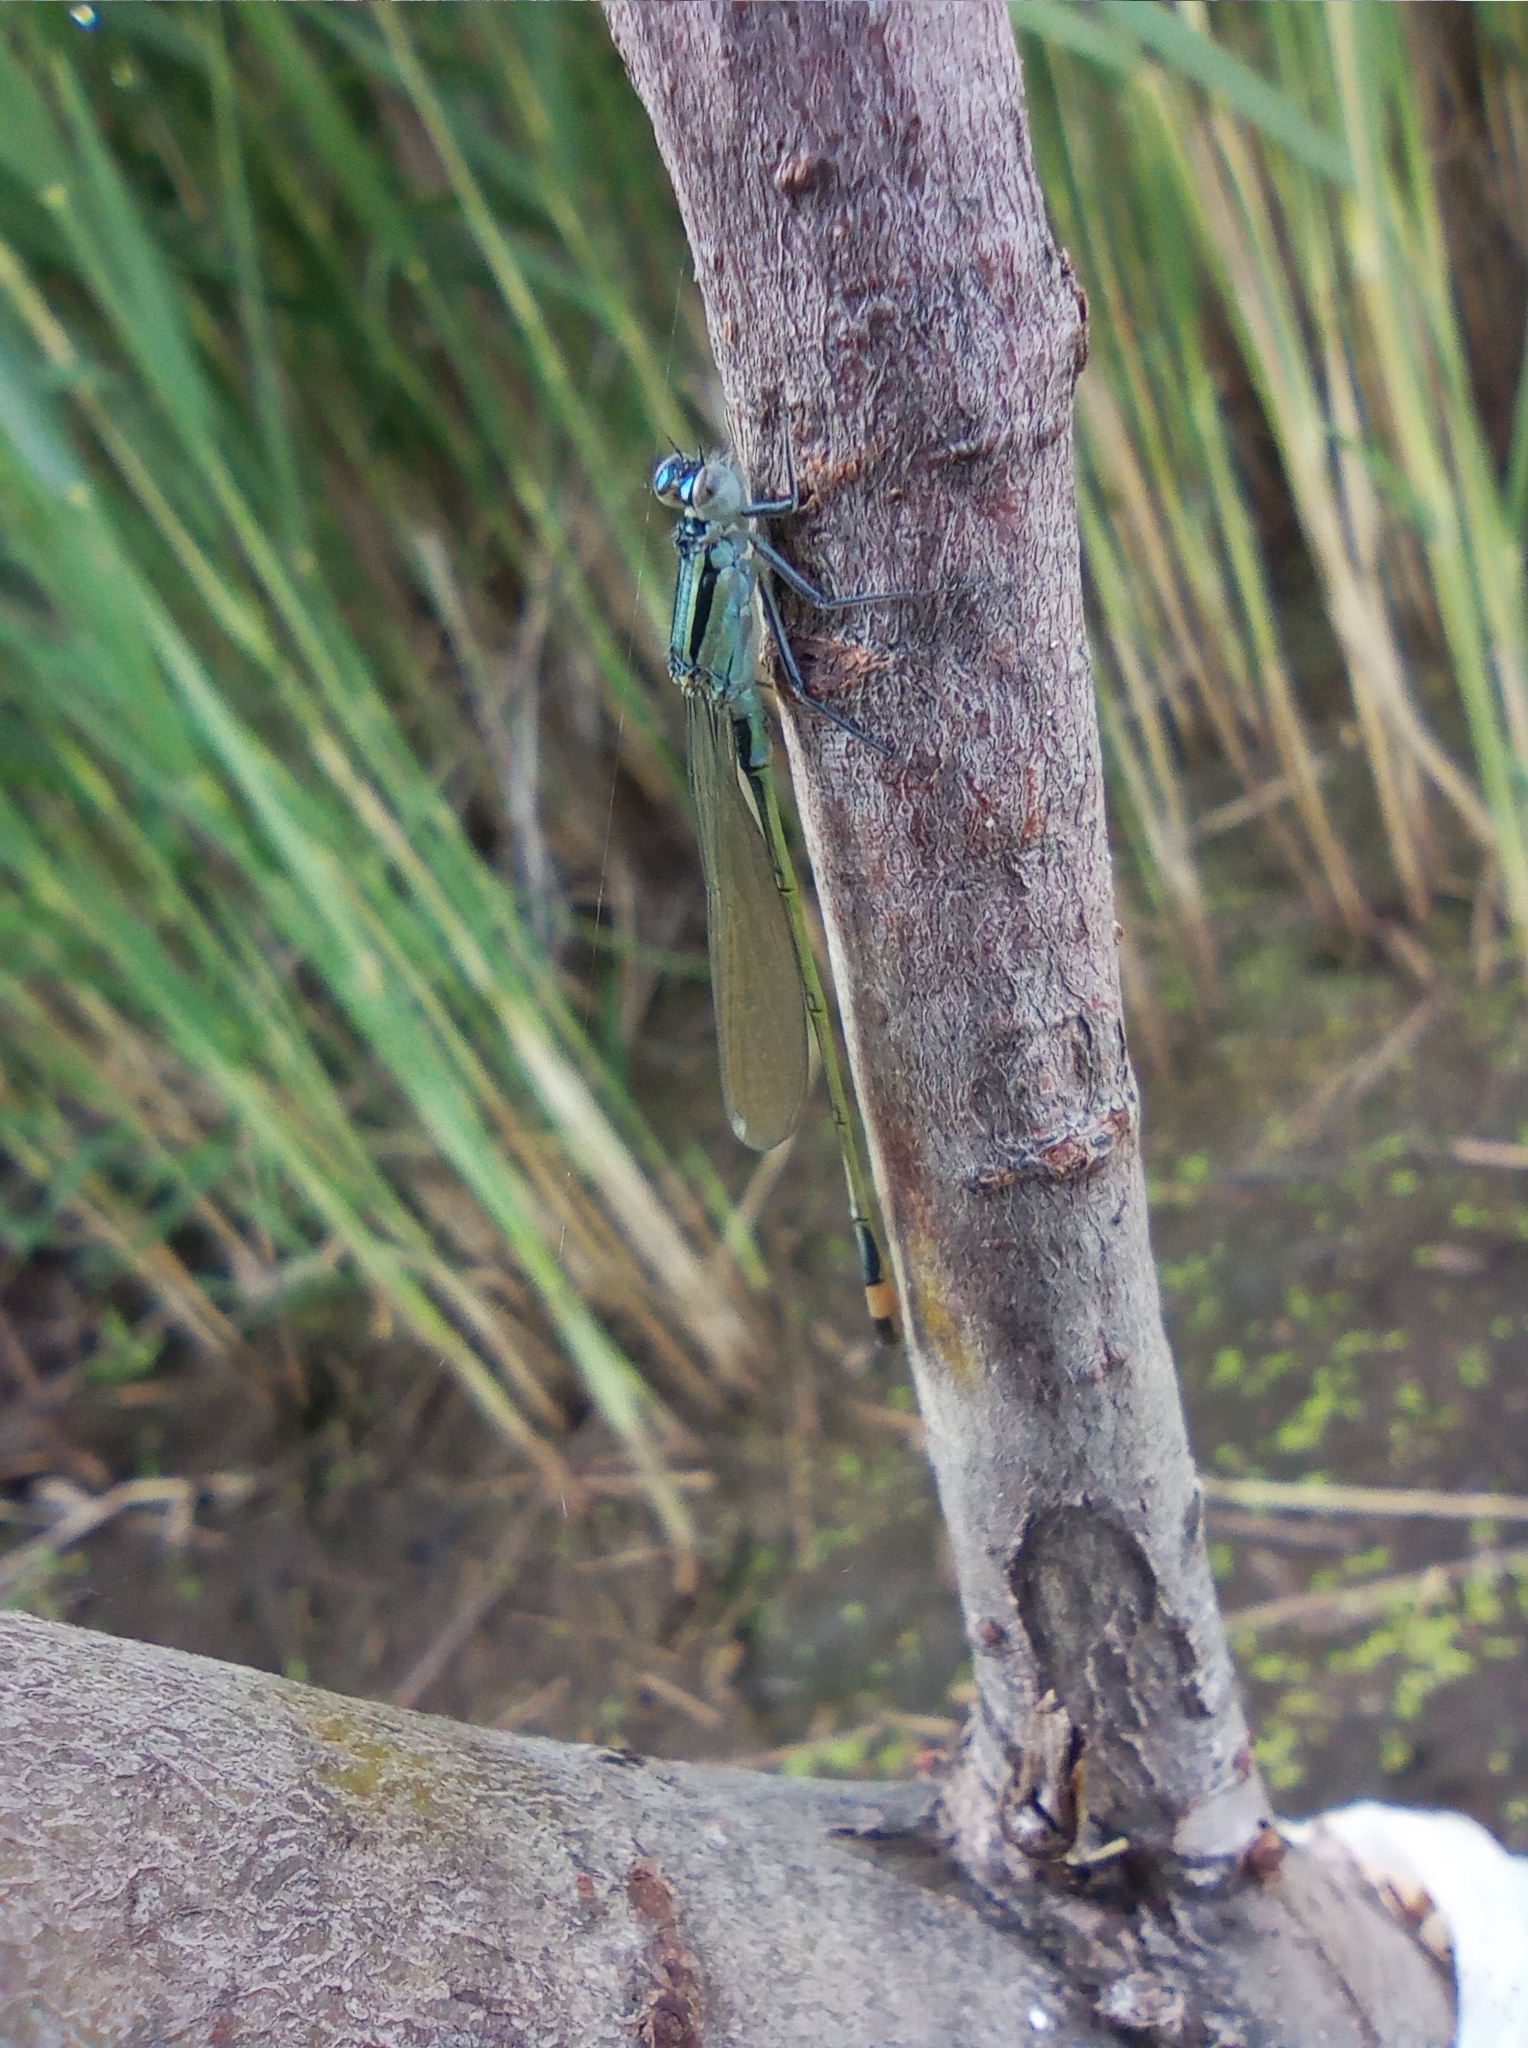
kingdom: Animalia
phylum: Arthropoda
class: Insecta
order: Odonata
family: Coenagrionidae
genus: Ischnura
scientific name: Ischnura elegans
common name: Blue-tailed damselfly
